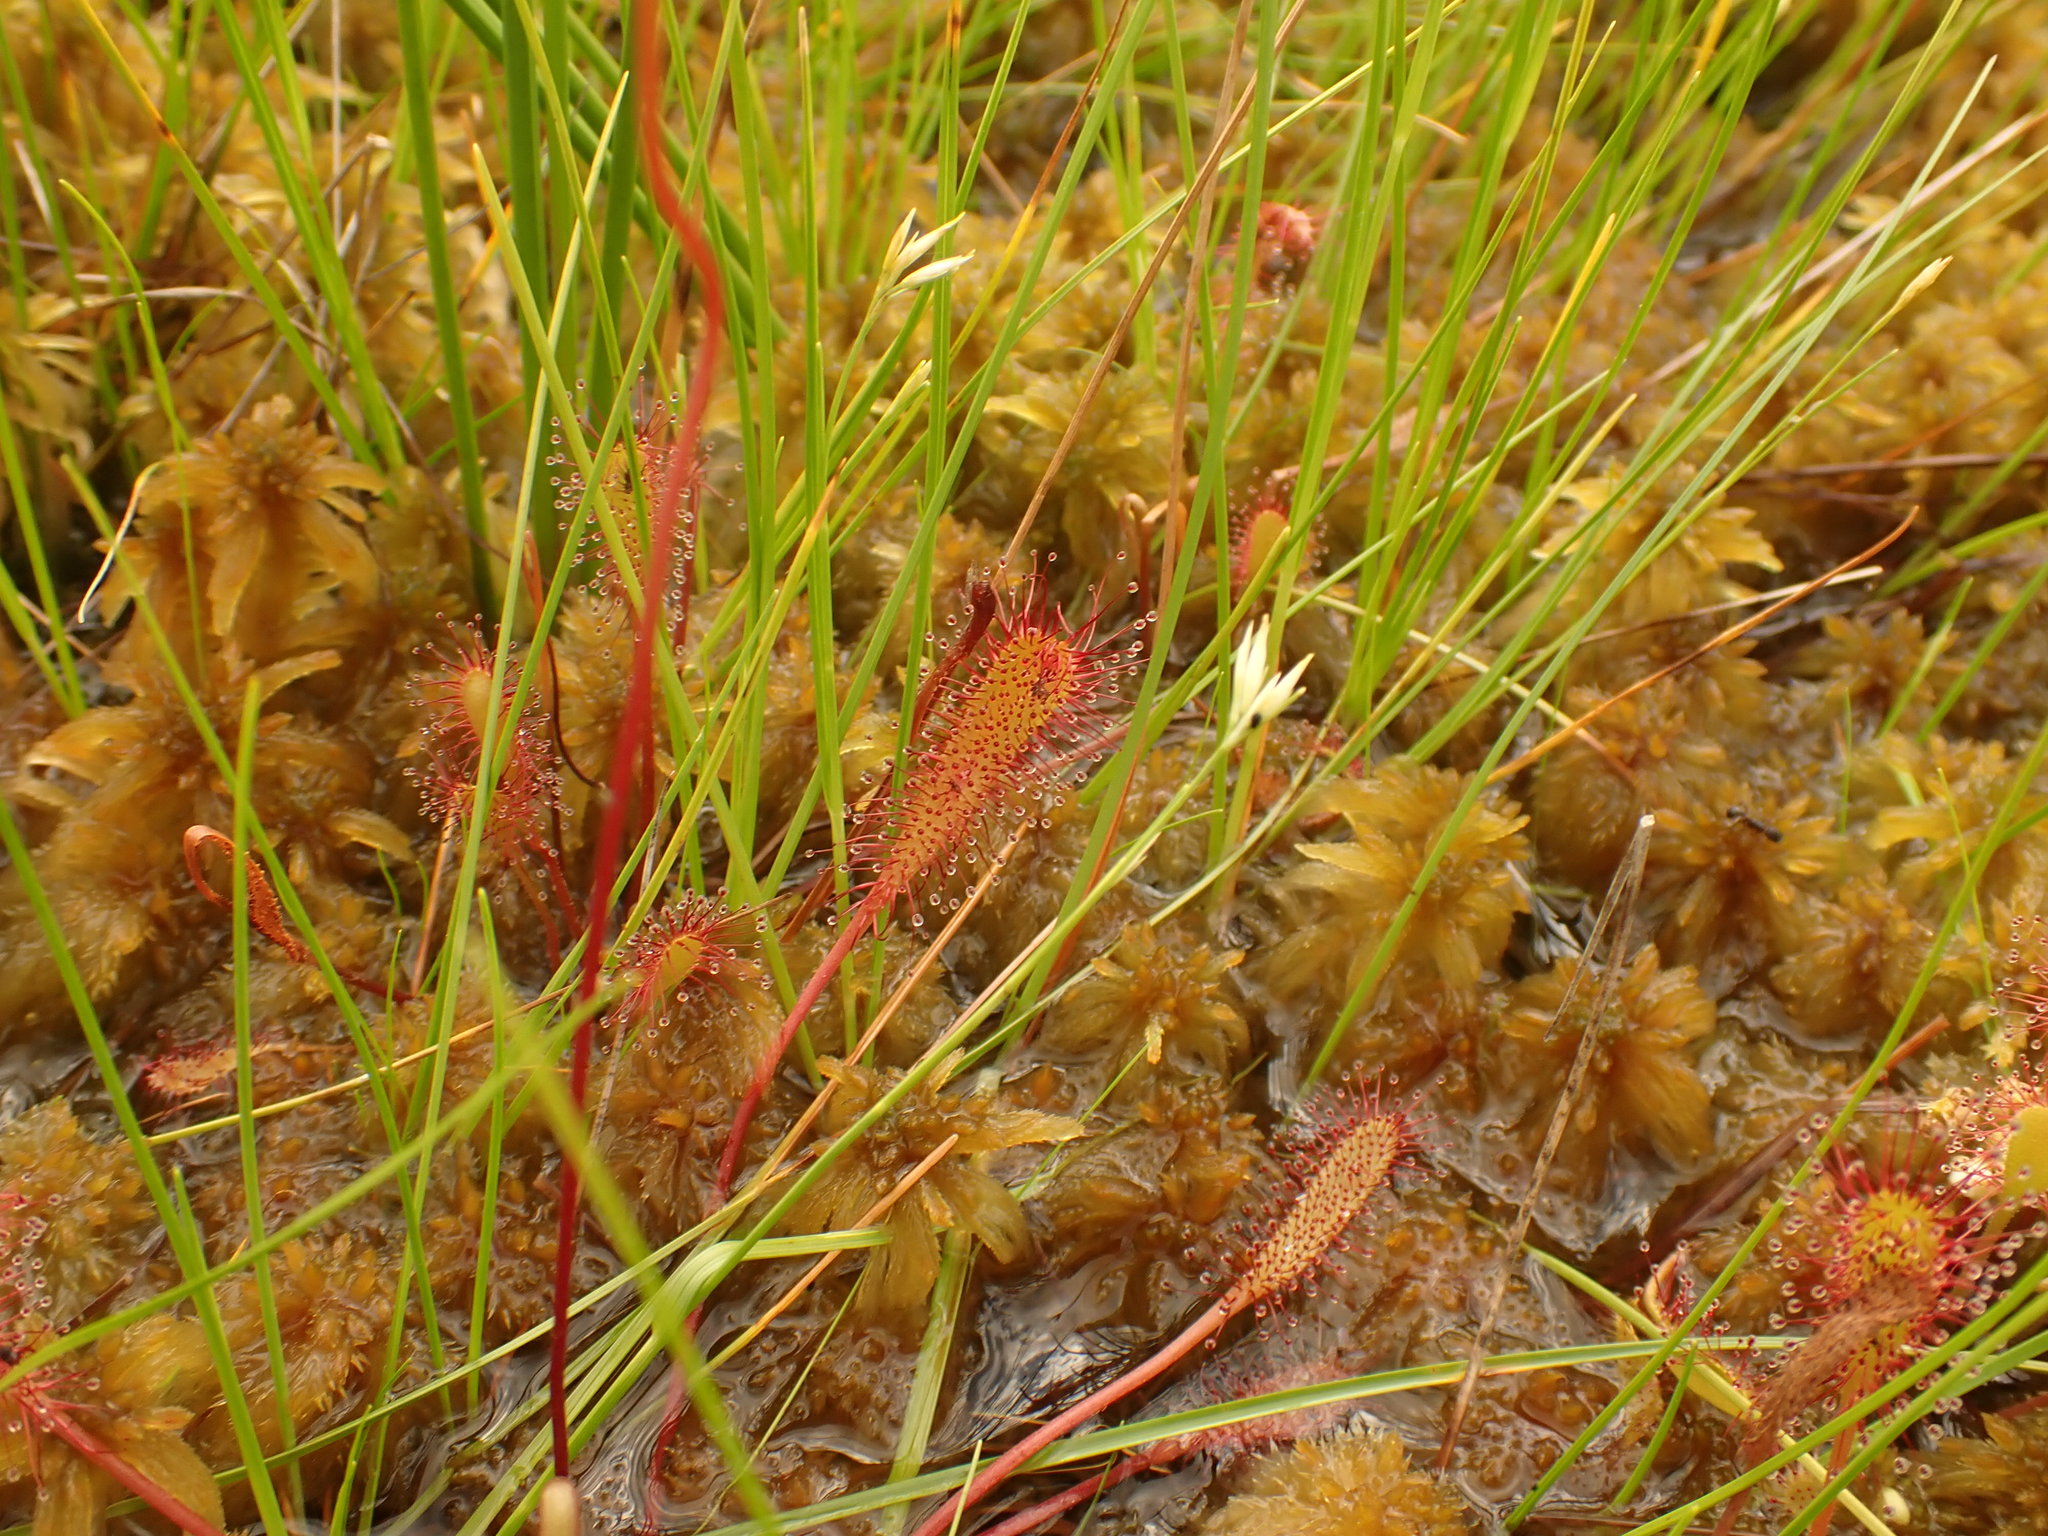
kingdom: Plantae
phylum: Tracheophyta
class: Magnoliopsida
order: Caryophyllales
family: Droseraceae
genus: Drosera
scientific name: Drosera anglica
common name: Great sundew
